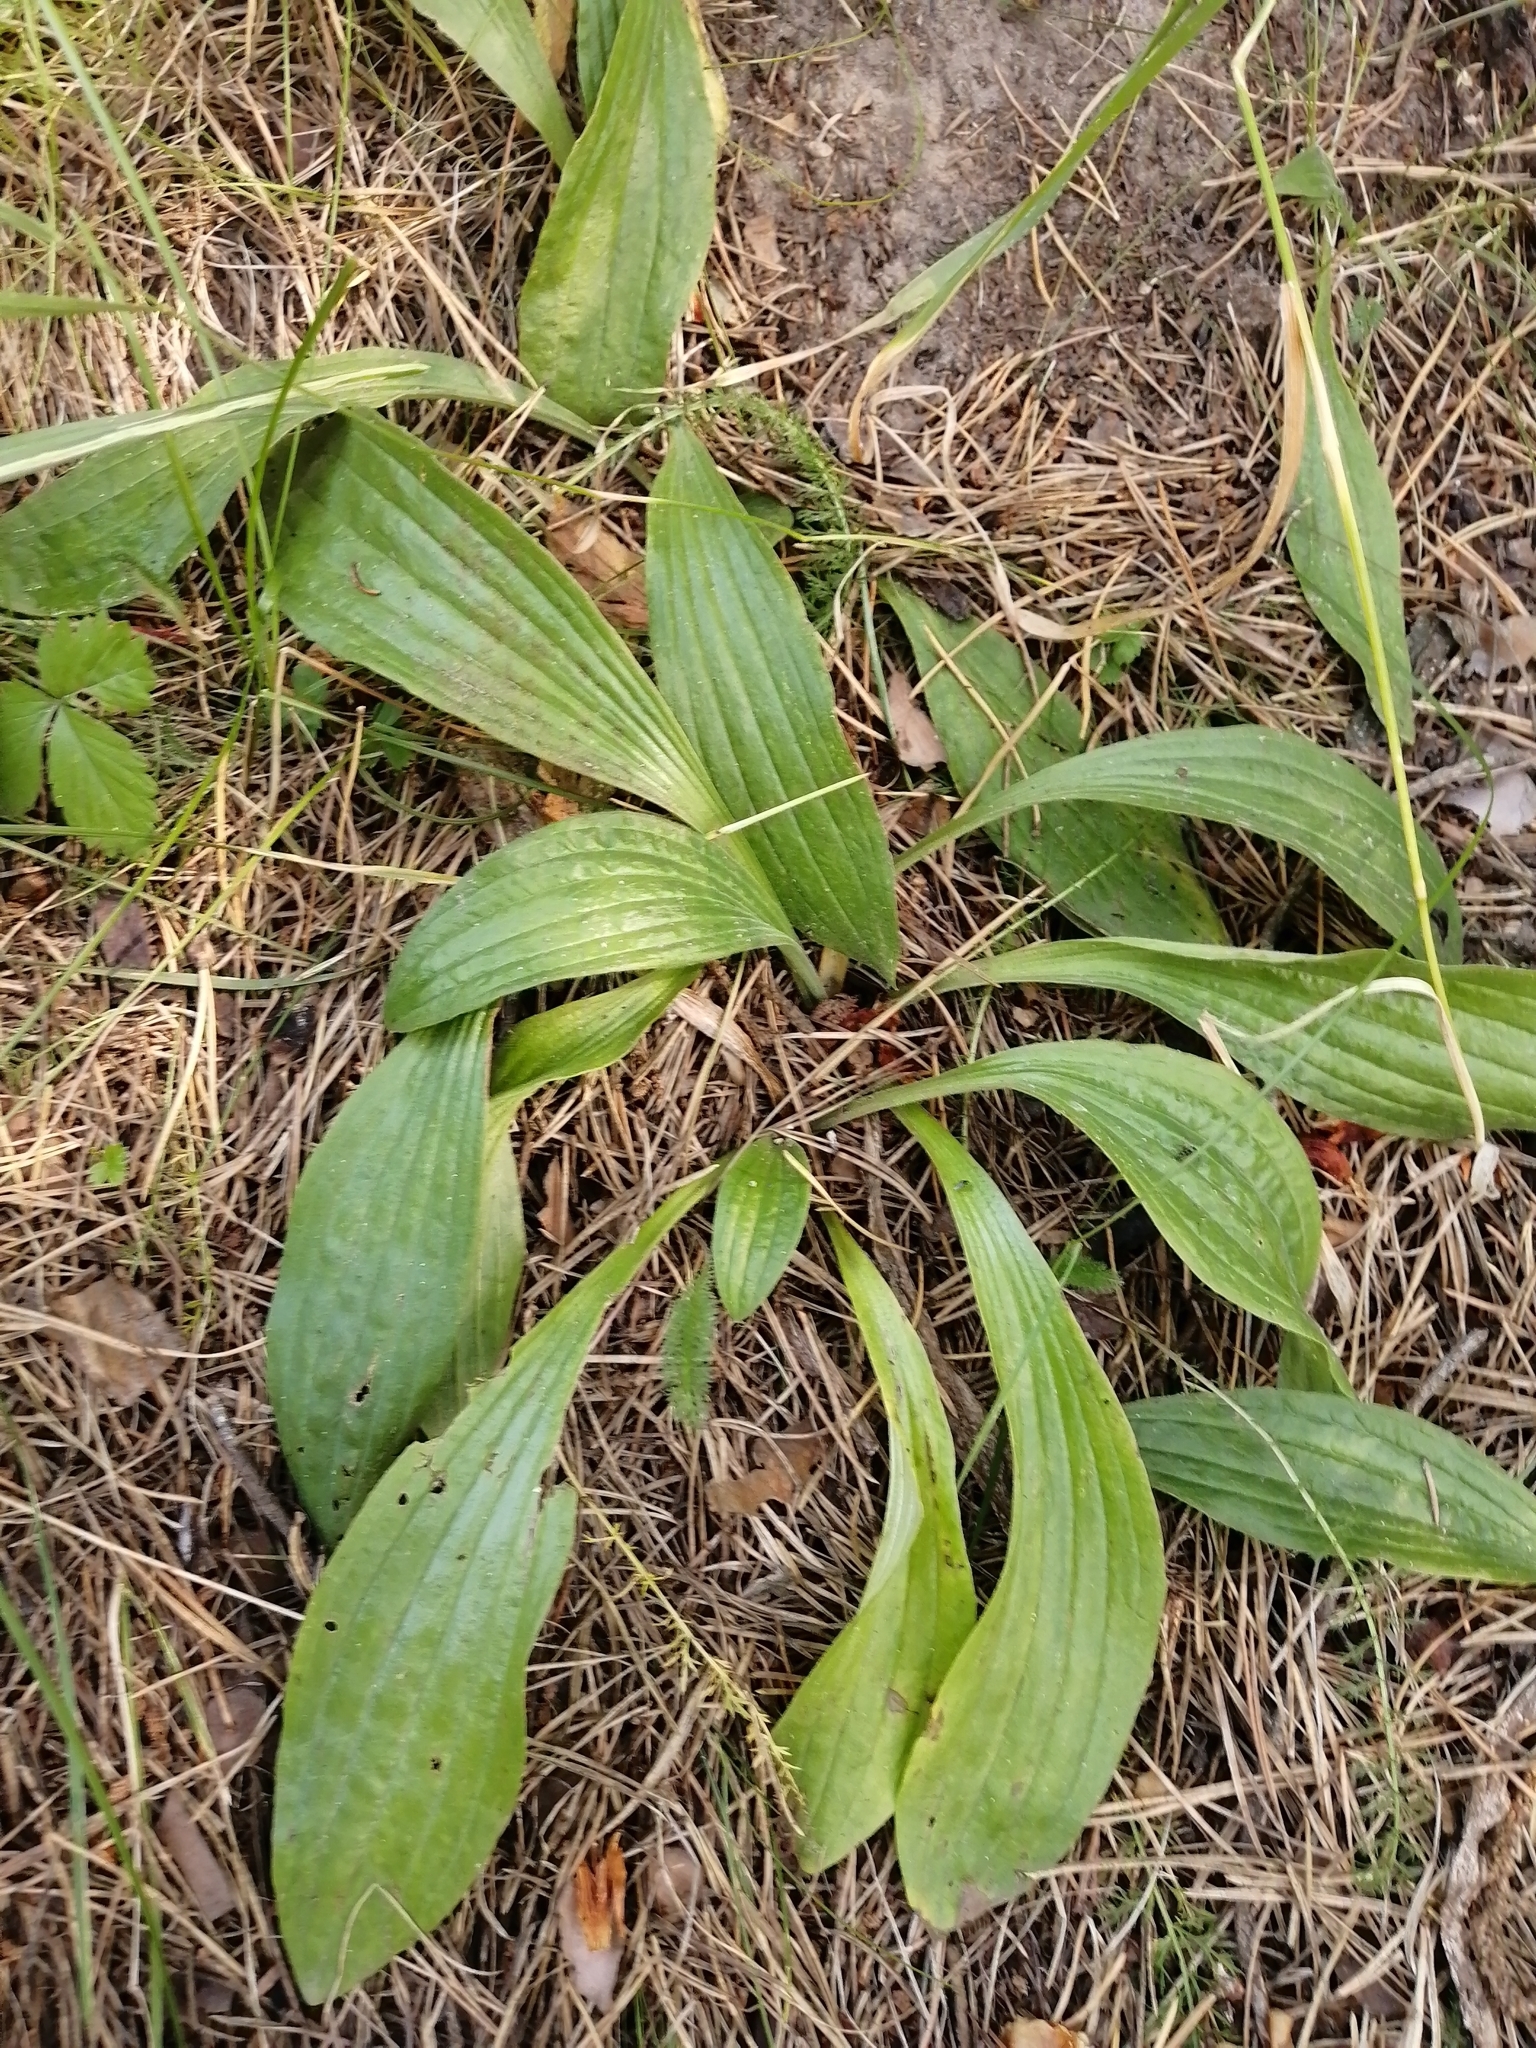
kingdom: Plantae
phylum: Tracheophyta
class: Magnoliopsida
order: Lamiales
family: Plantaginaceae
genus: Plantago
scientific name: Plantago lanceolata
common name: Ribwort plantain
